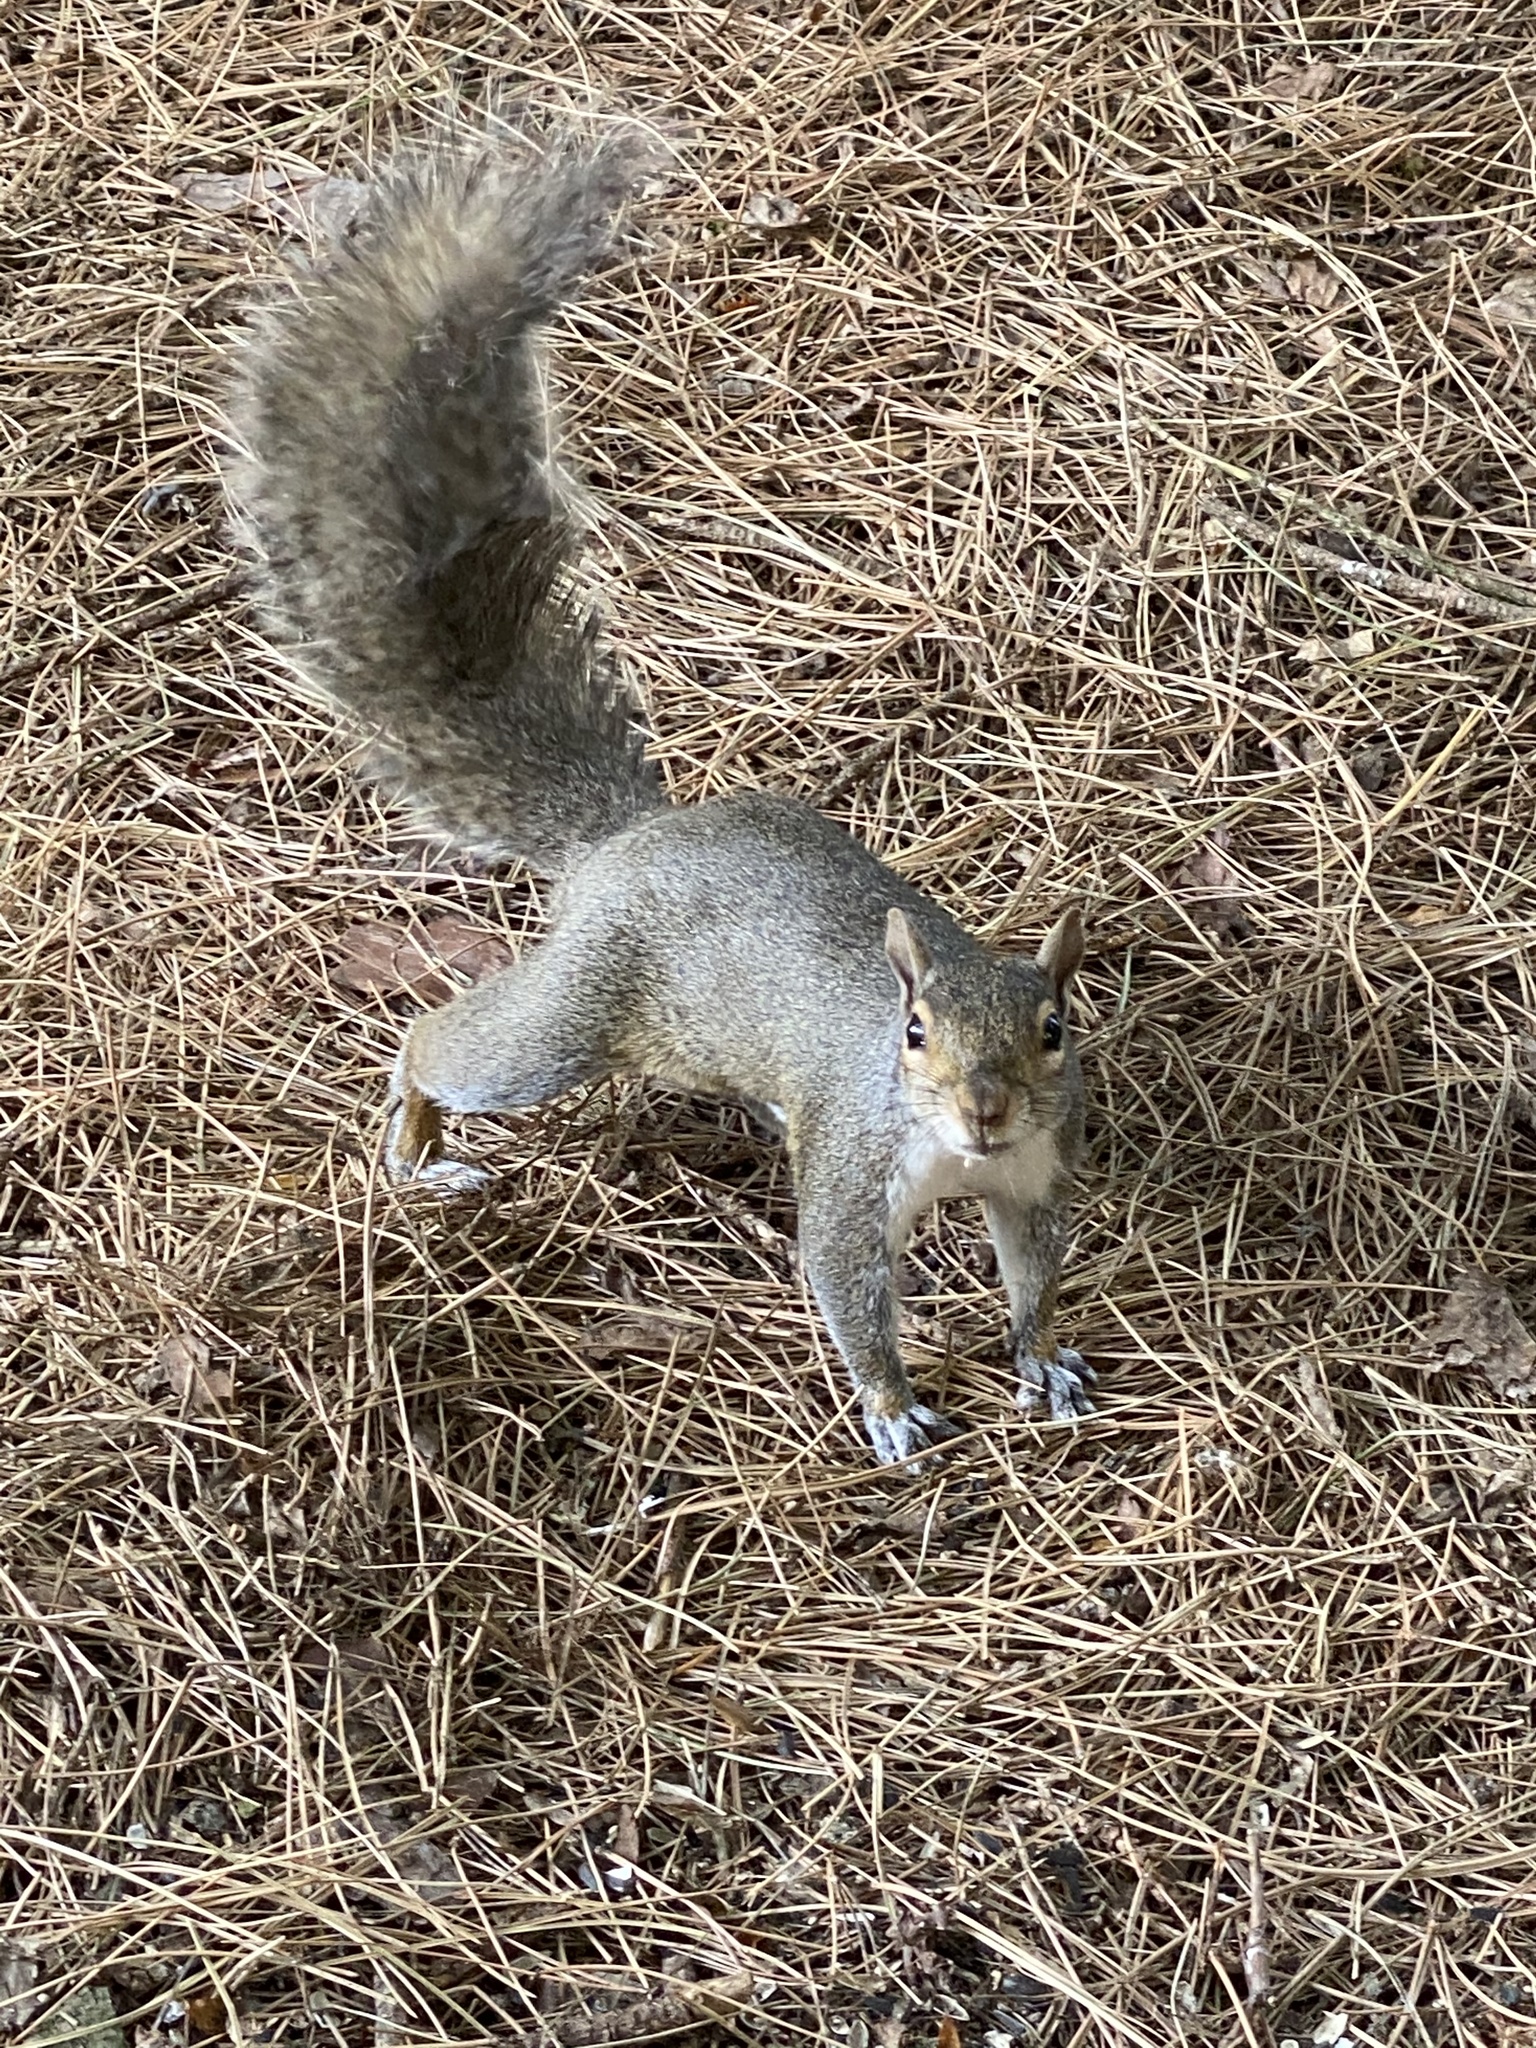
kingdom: Animalia
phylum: Chordata
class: Mammalia
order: Rodentia
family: Sciuridae
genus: Sciurus
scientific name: Sciurus carolinensis
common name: Eastern gray squirrel
